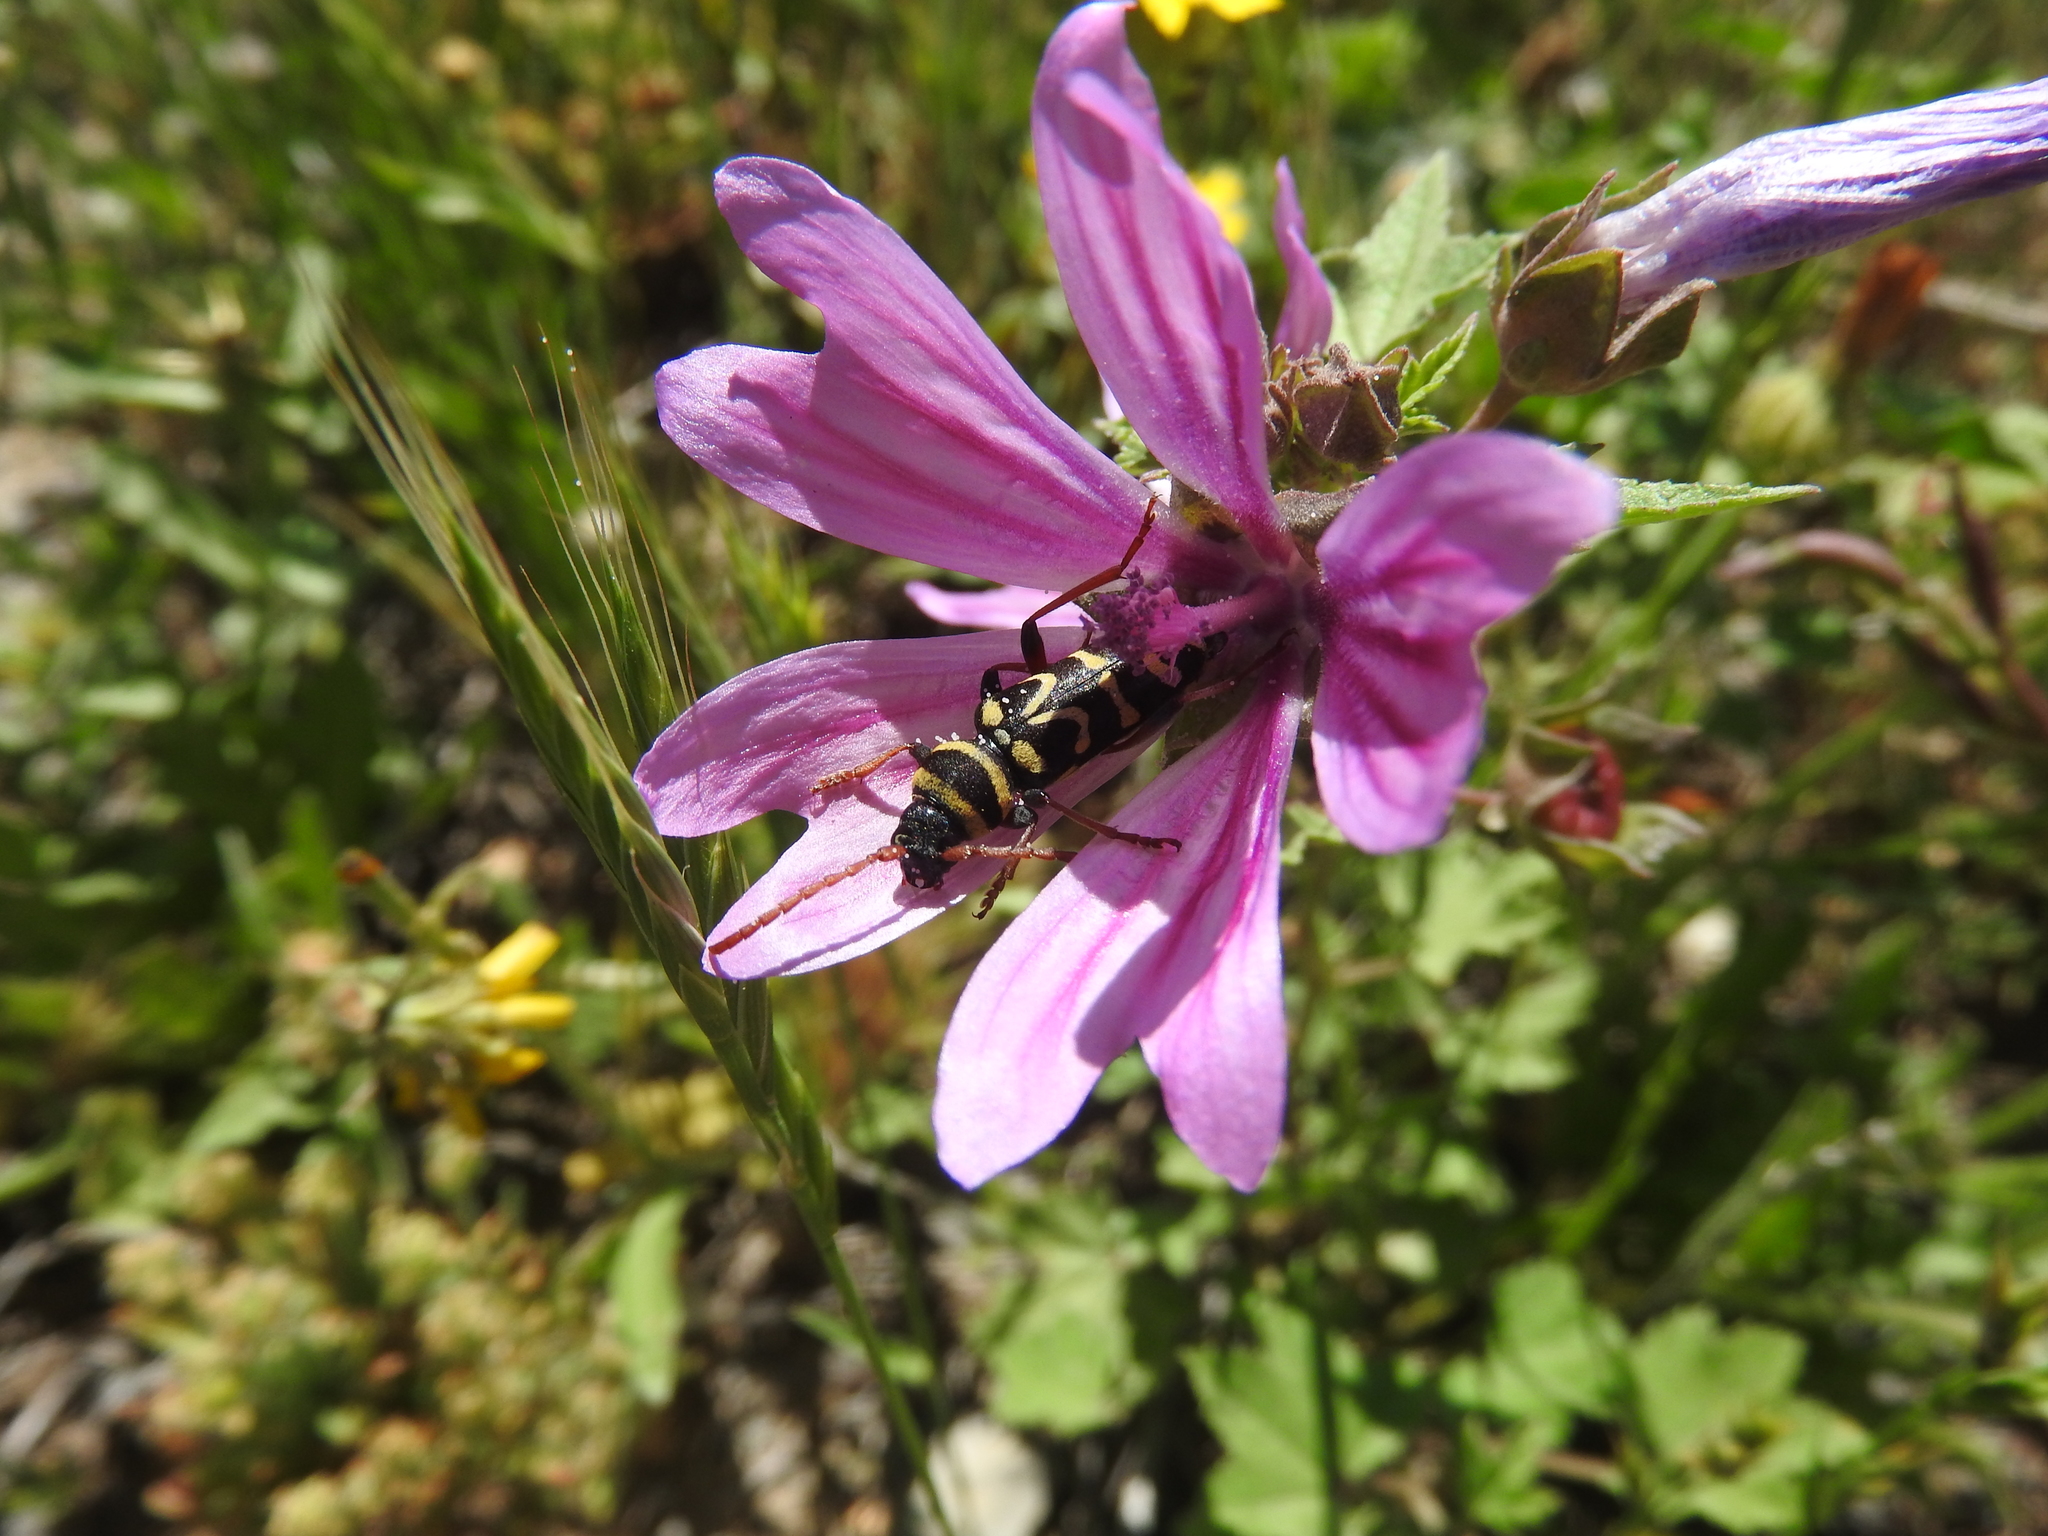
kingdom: Animalia
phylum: Arthropoda
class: Insecta
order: Coleoptera
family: Cerambycidae
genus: Neoplagionotus
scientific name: Neoplagionotus scalaris
